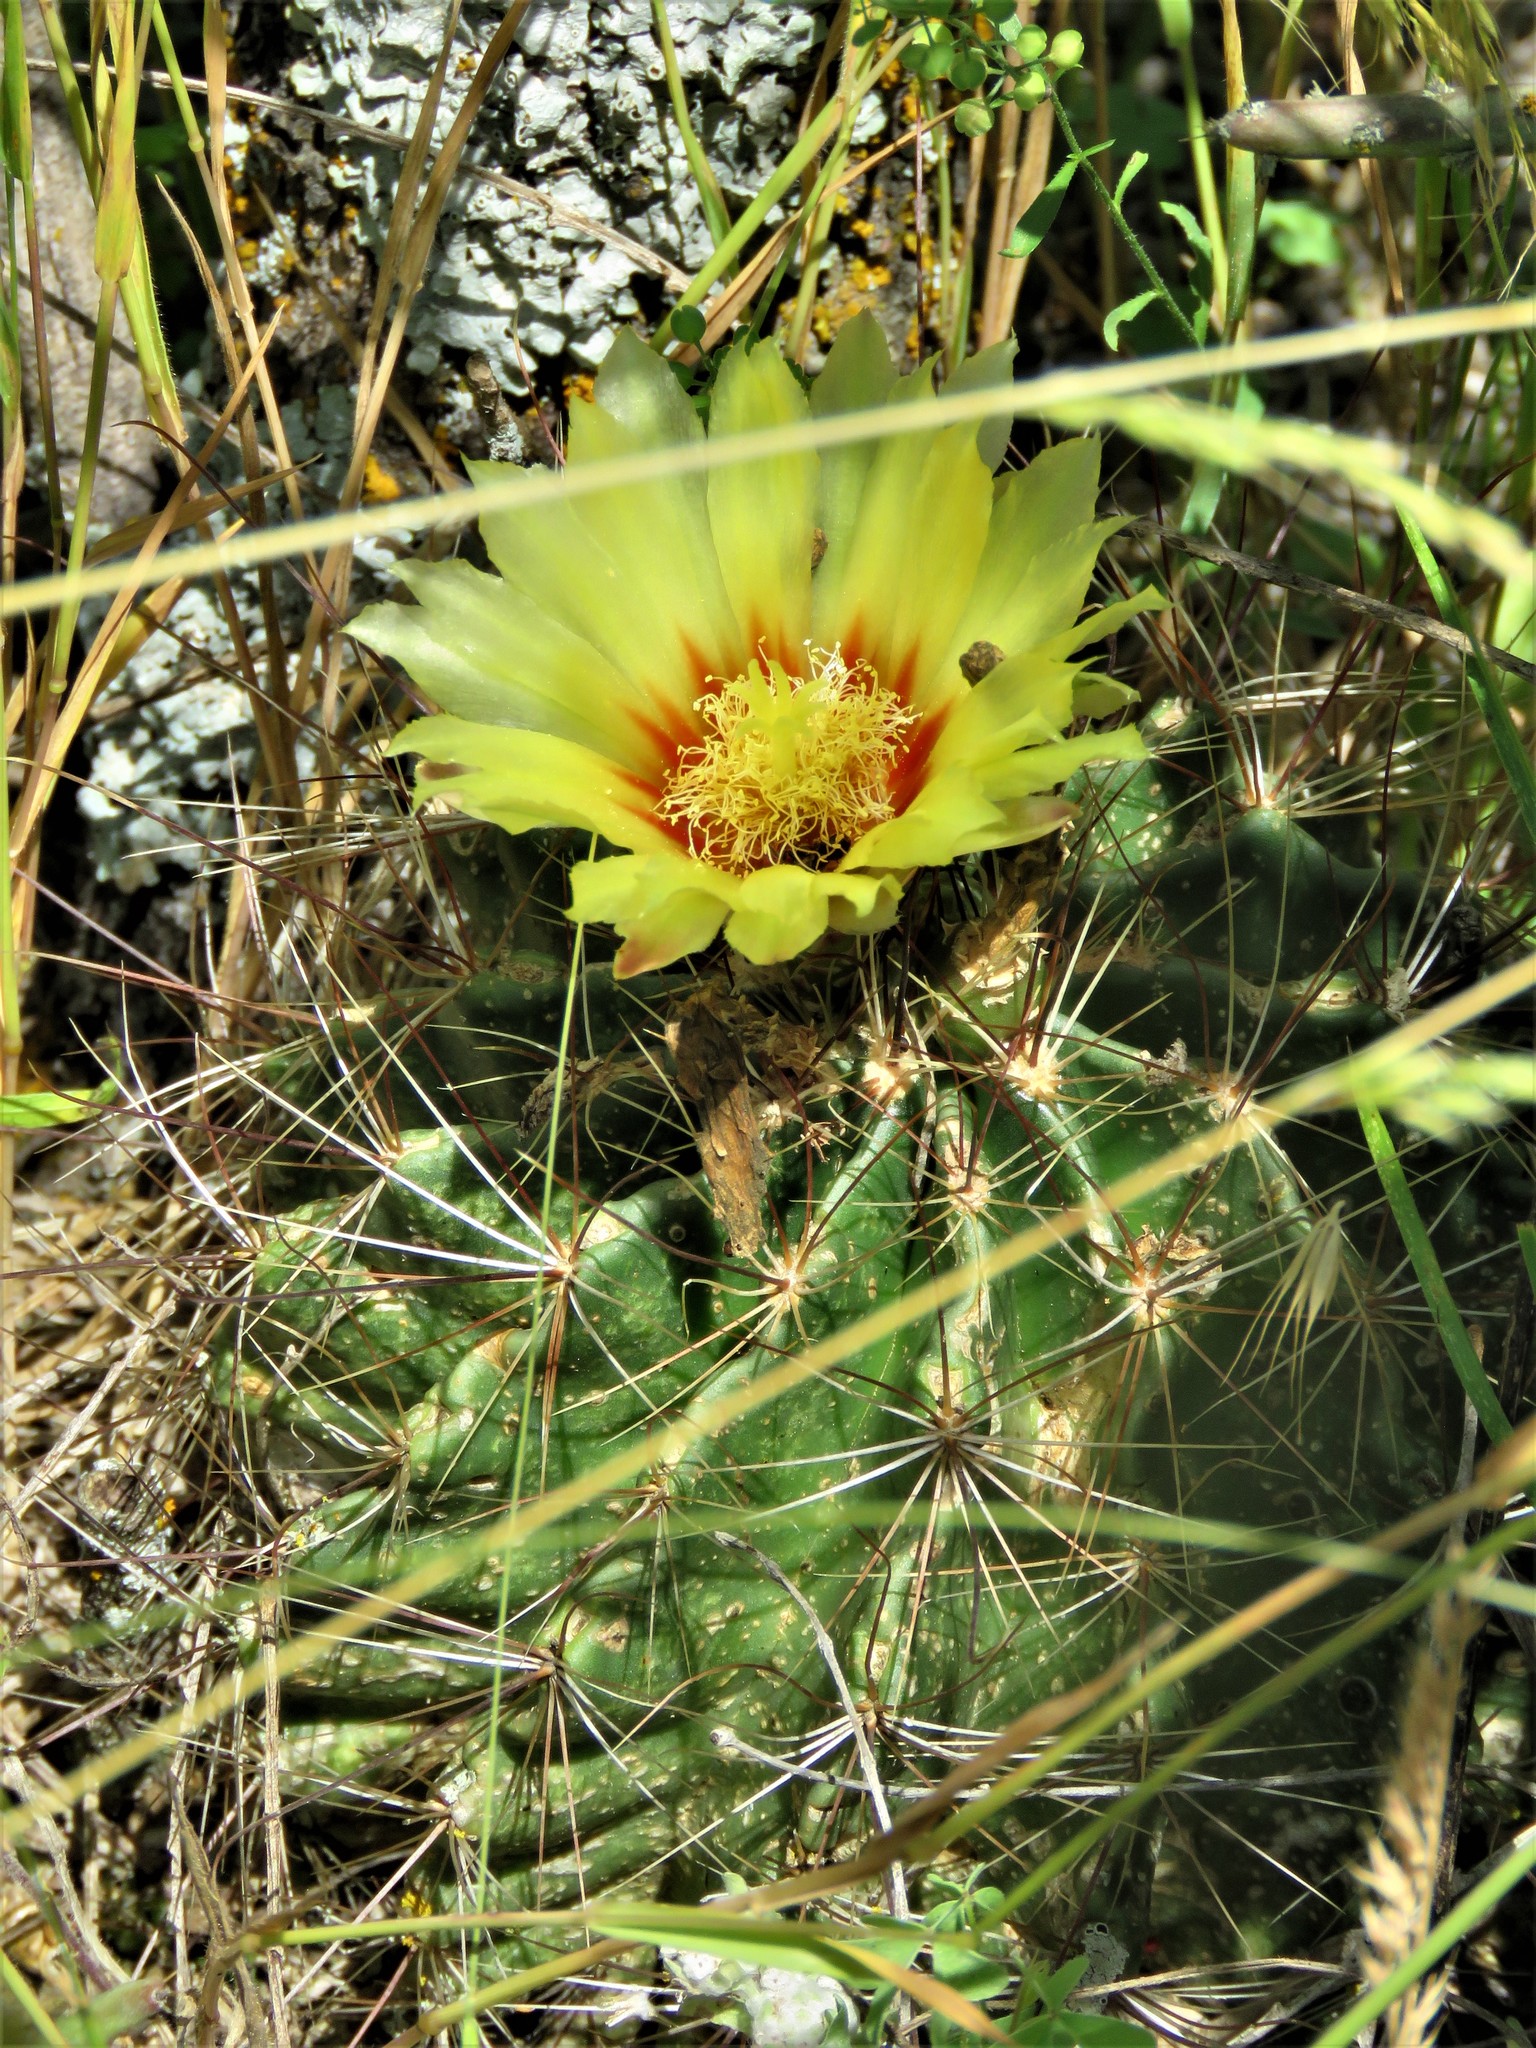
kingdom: Plantae
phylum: Tracheophyta
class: Magnoliopsida
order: Caryophyllales
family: Cactaceae
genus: Thelocactus
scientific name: Thelocactus setispinus
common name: Miniature barrel cactus
